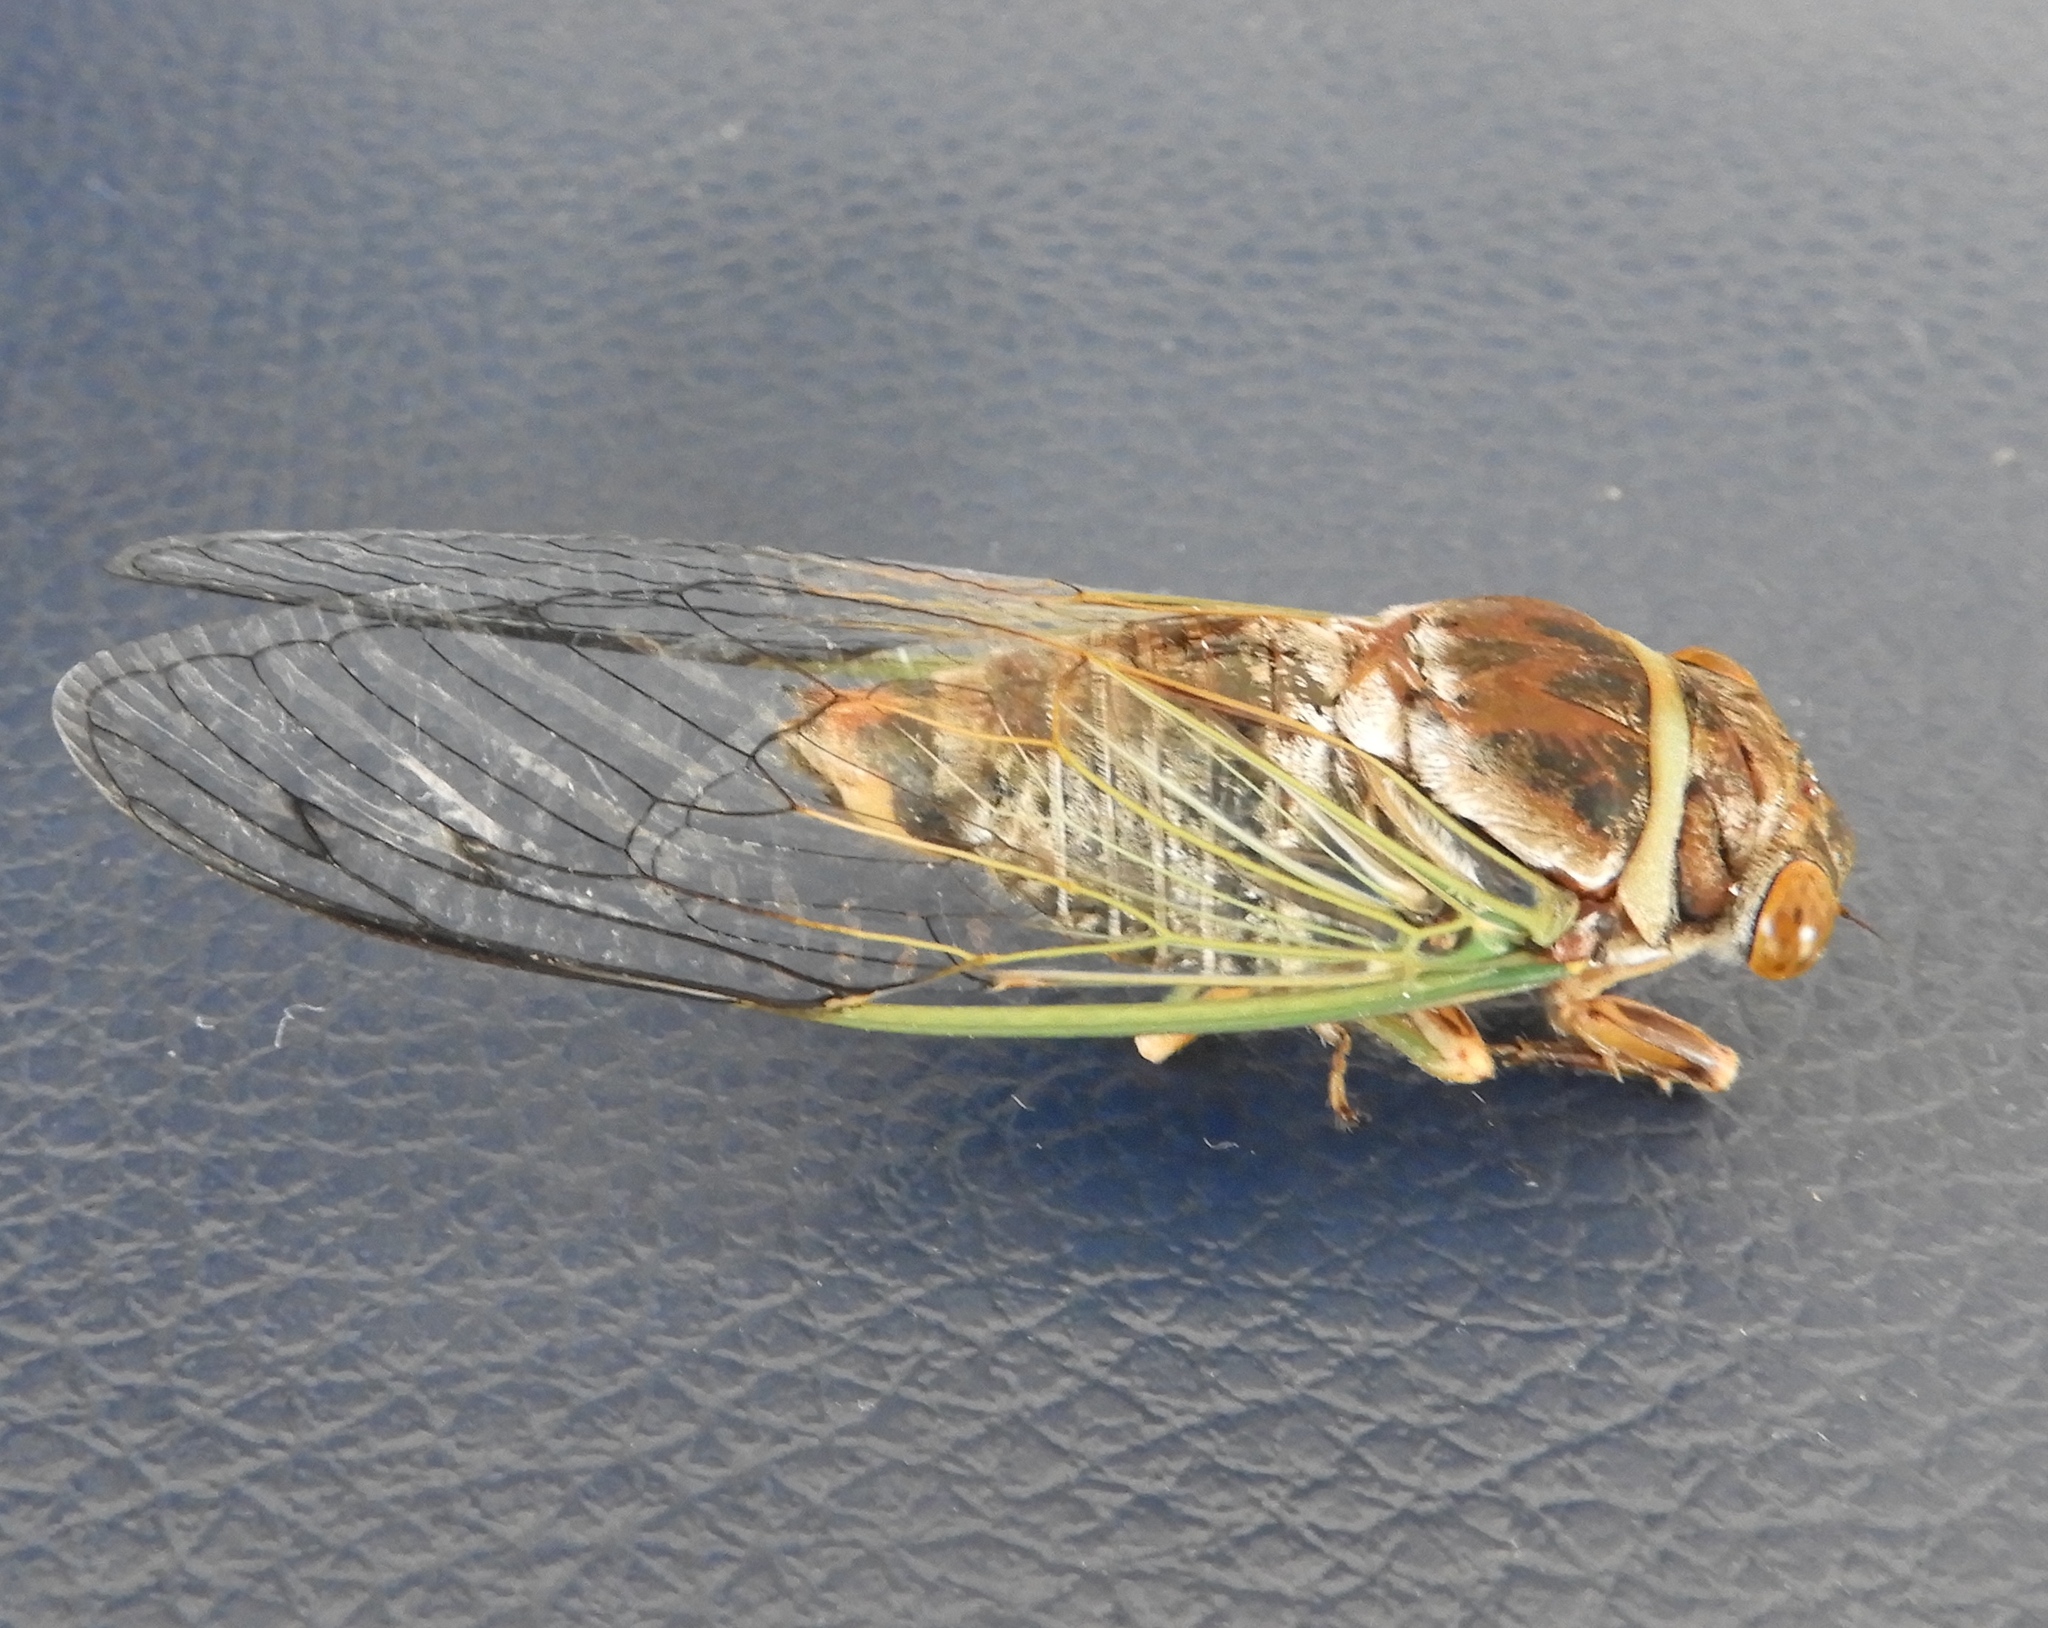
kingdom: Animalia
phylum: Arthropoda
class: Insecta
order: Hemiptera
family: Cicadidae
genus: Diceroprocta
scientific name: Diceroprocta bulgara
